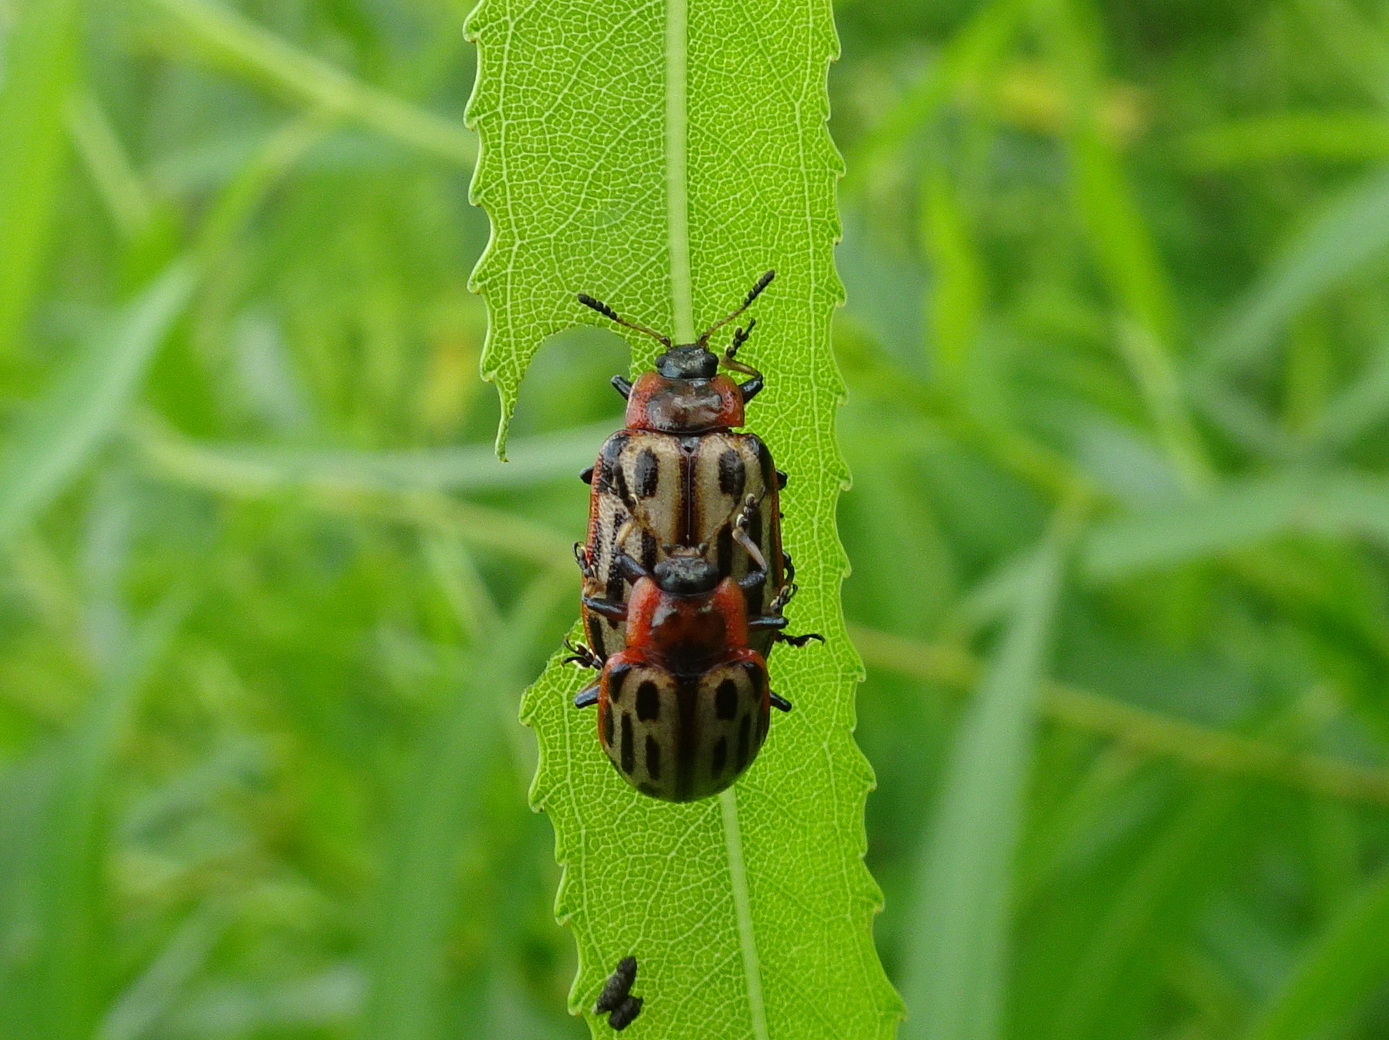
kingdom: Animalia
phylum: Arthropoda
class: Insecta
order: Coleoptera
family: Chrysomelidae
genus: Aethiopocassis
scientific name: Aethiopocassis scripta
